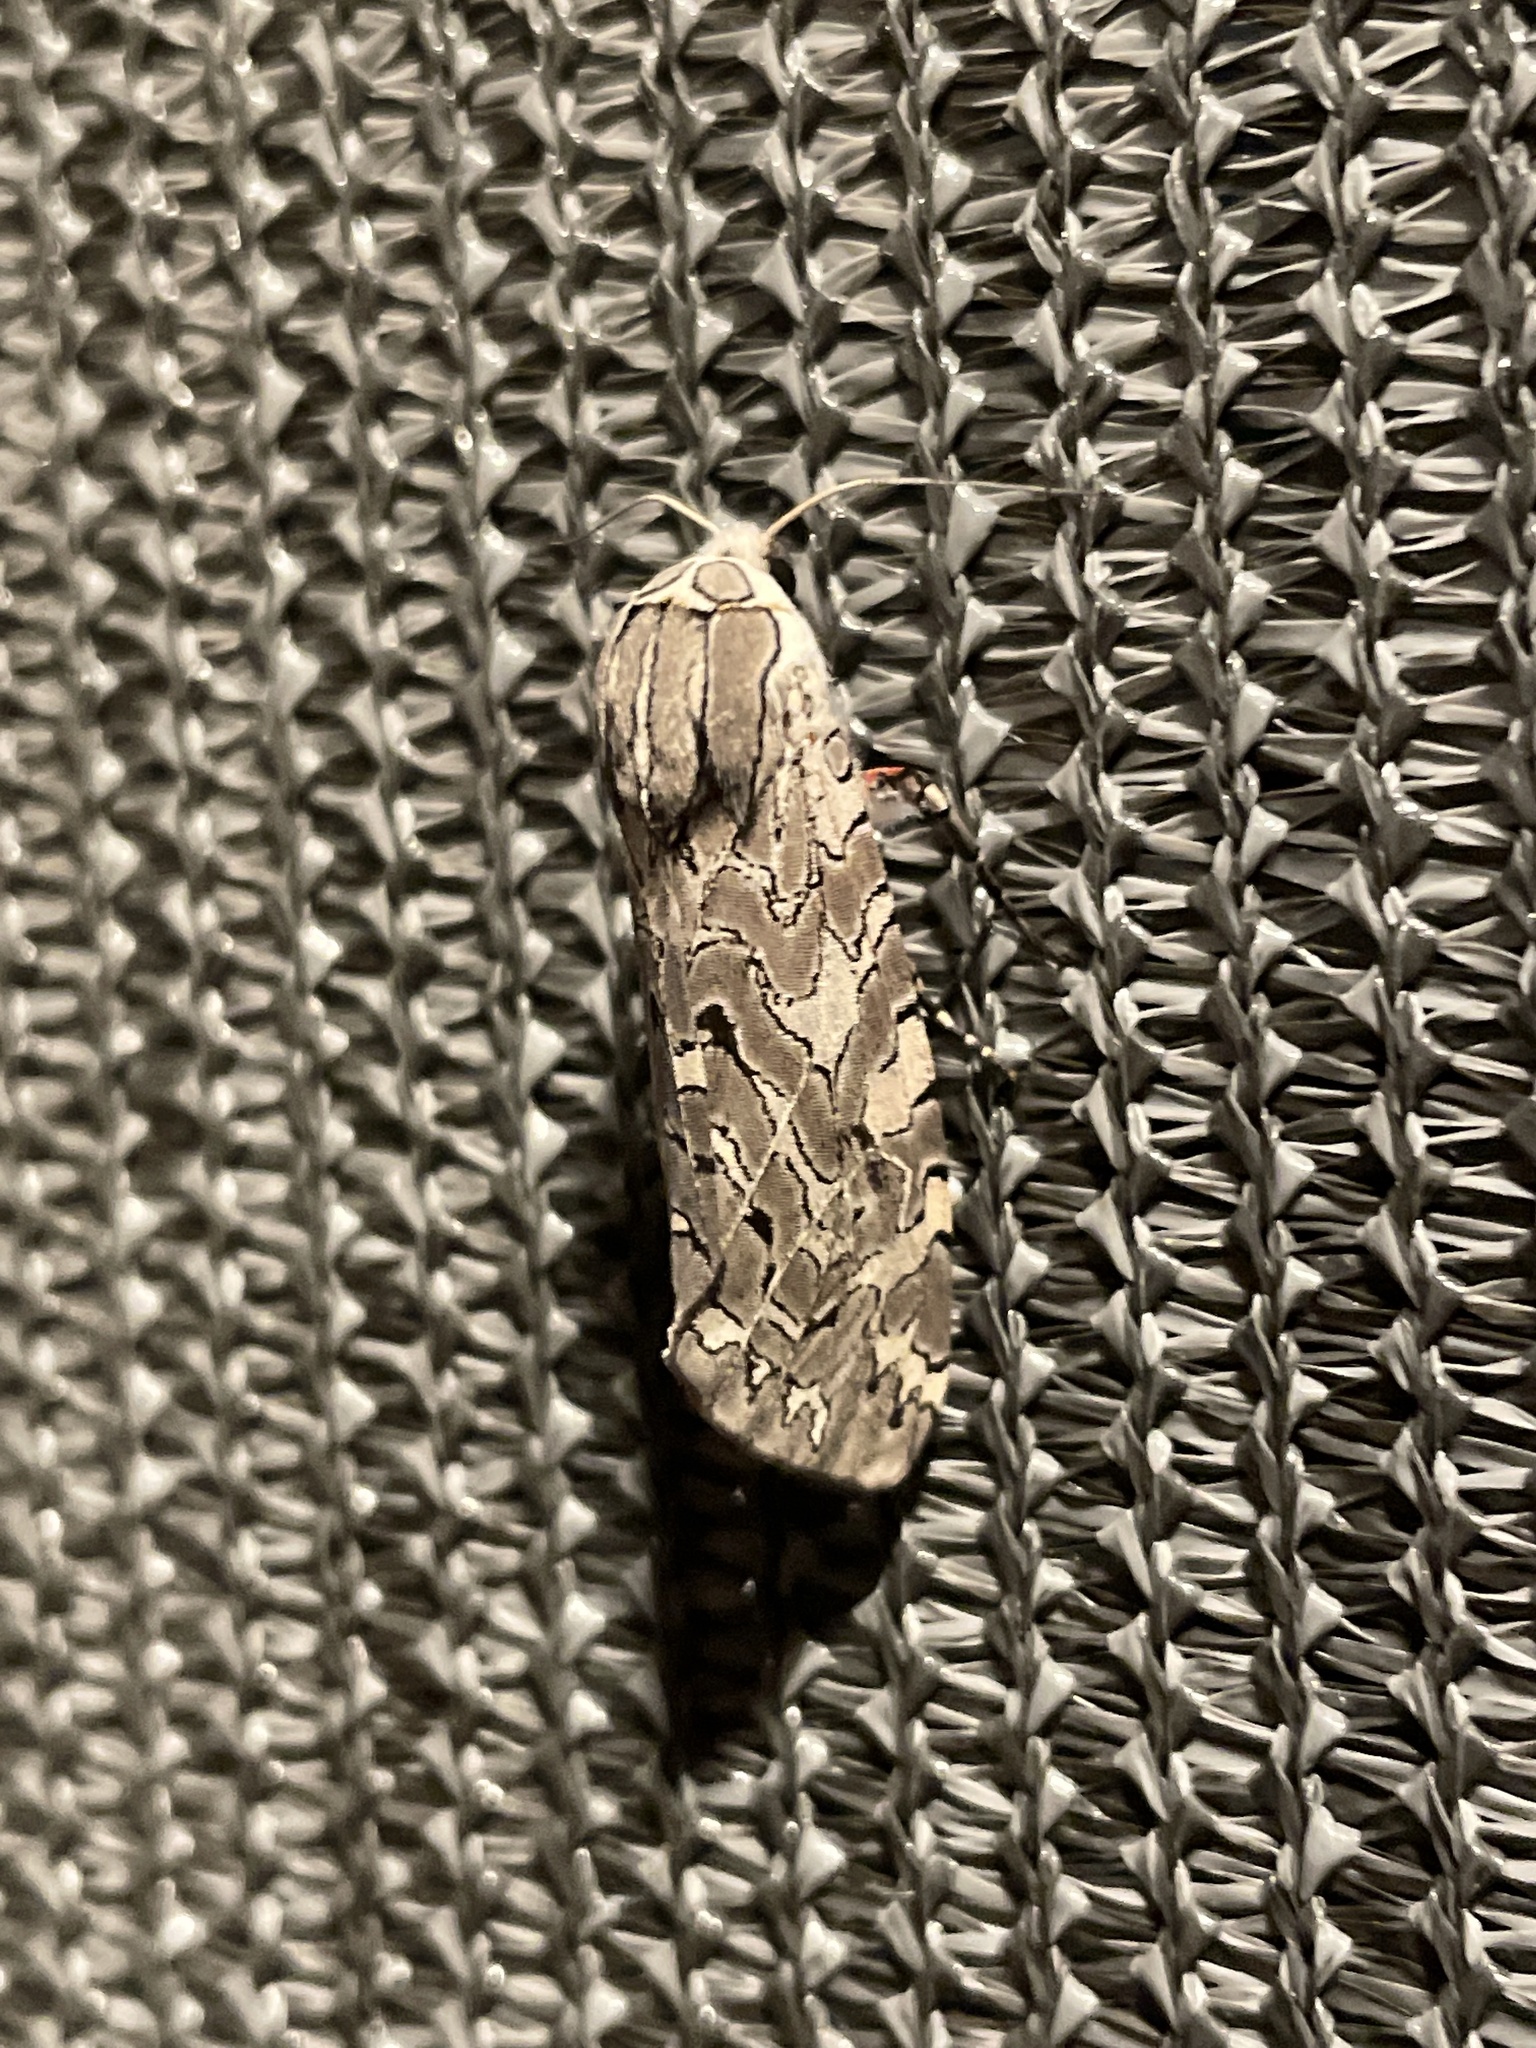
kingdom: Animalia
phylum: Arthropoda
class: Insecta
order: Lepidoptera
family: Erebidae
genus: Arachnis
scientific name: Arachnis picta
